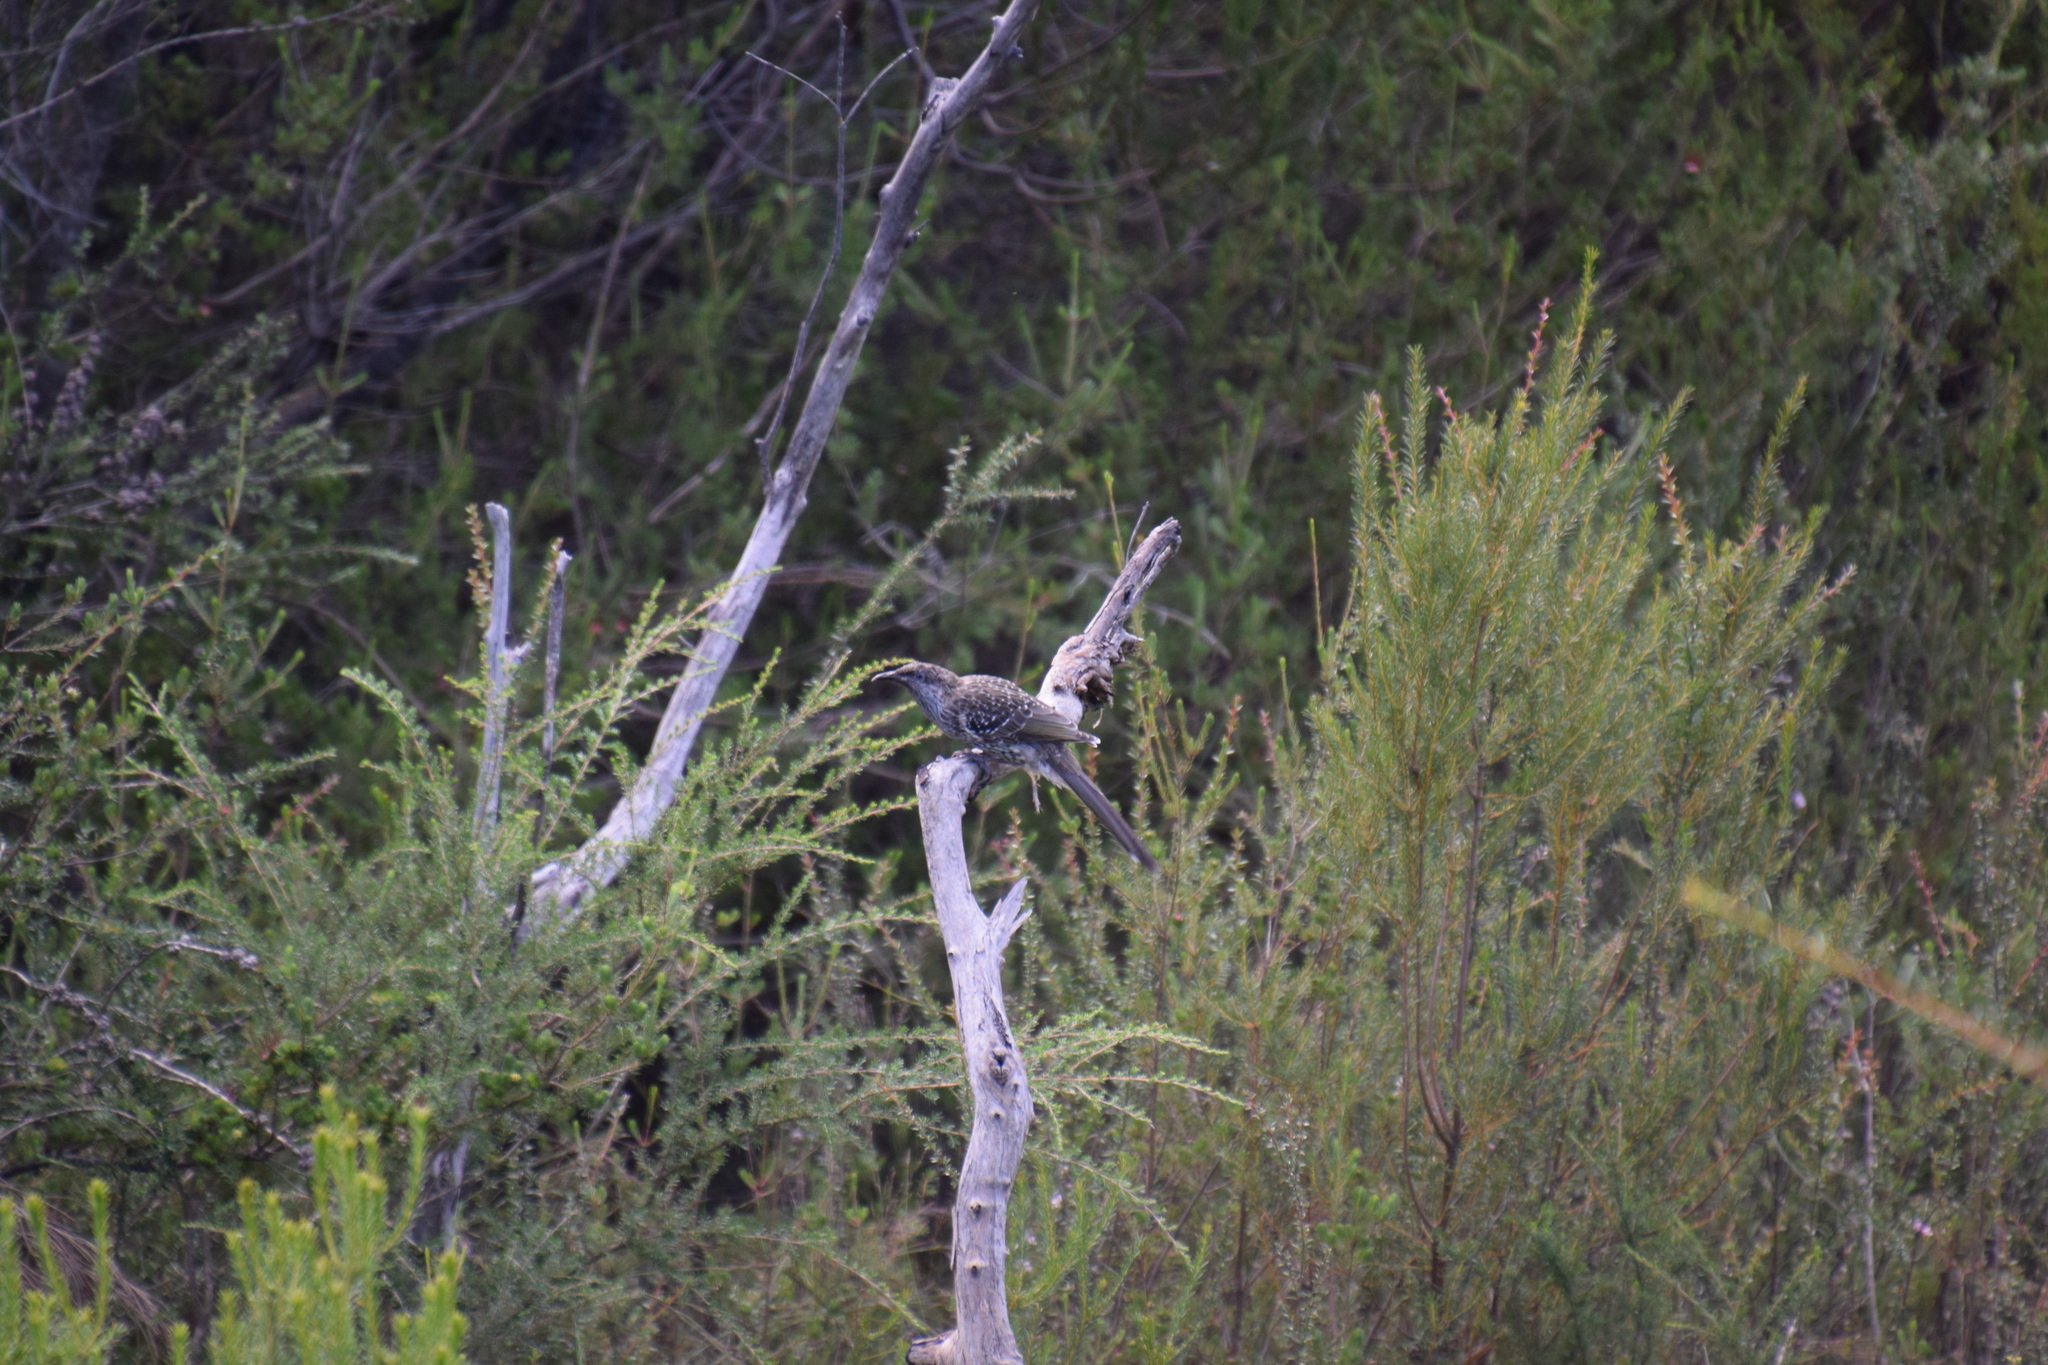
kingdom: Animalia
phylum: Chordata
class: Aves
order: Passeriformes
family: Meliphagidae
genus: Anthochaera
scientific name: Anthochaera chrysoptera
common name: Little wattlebird
